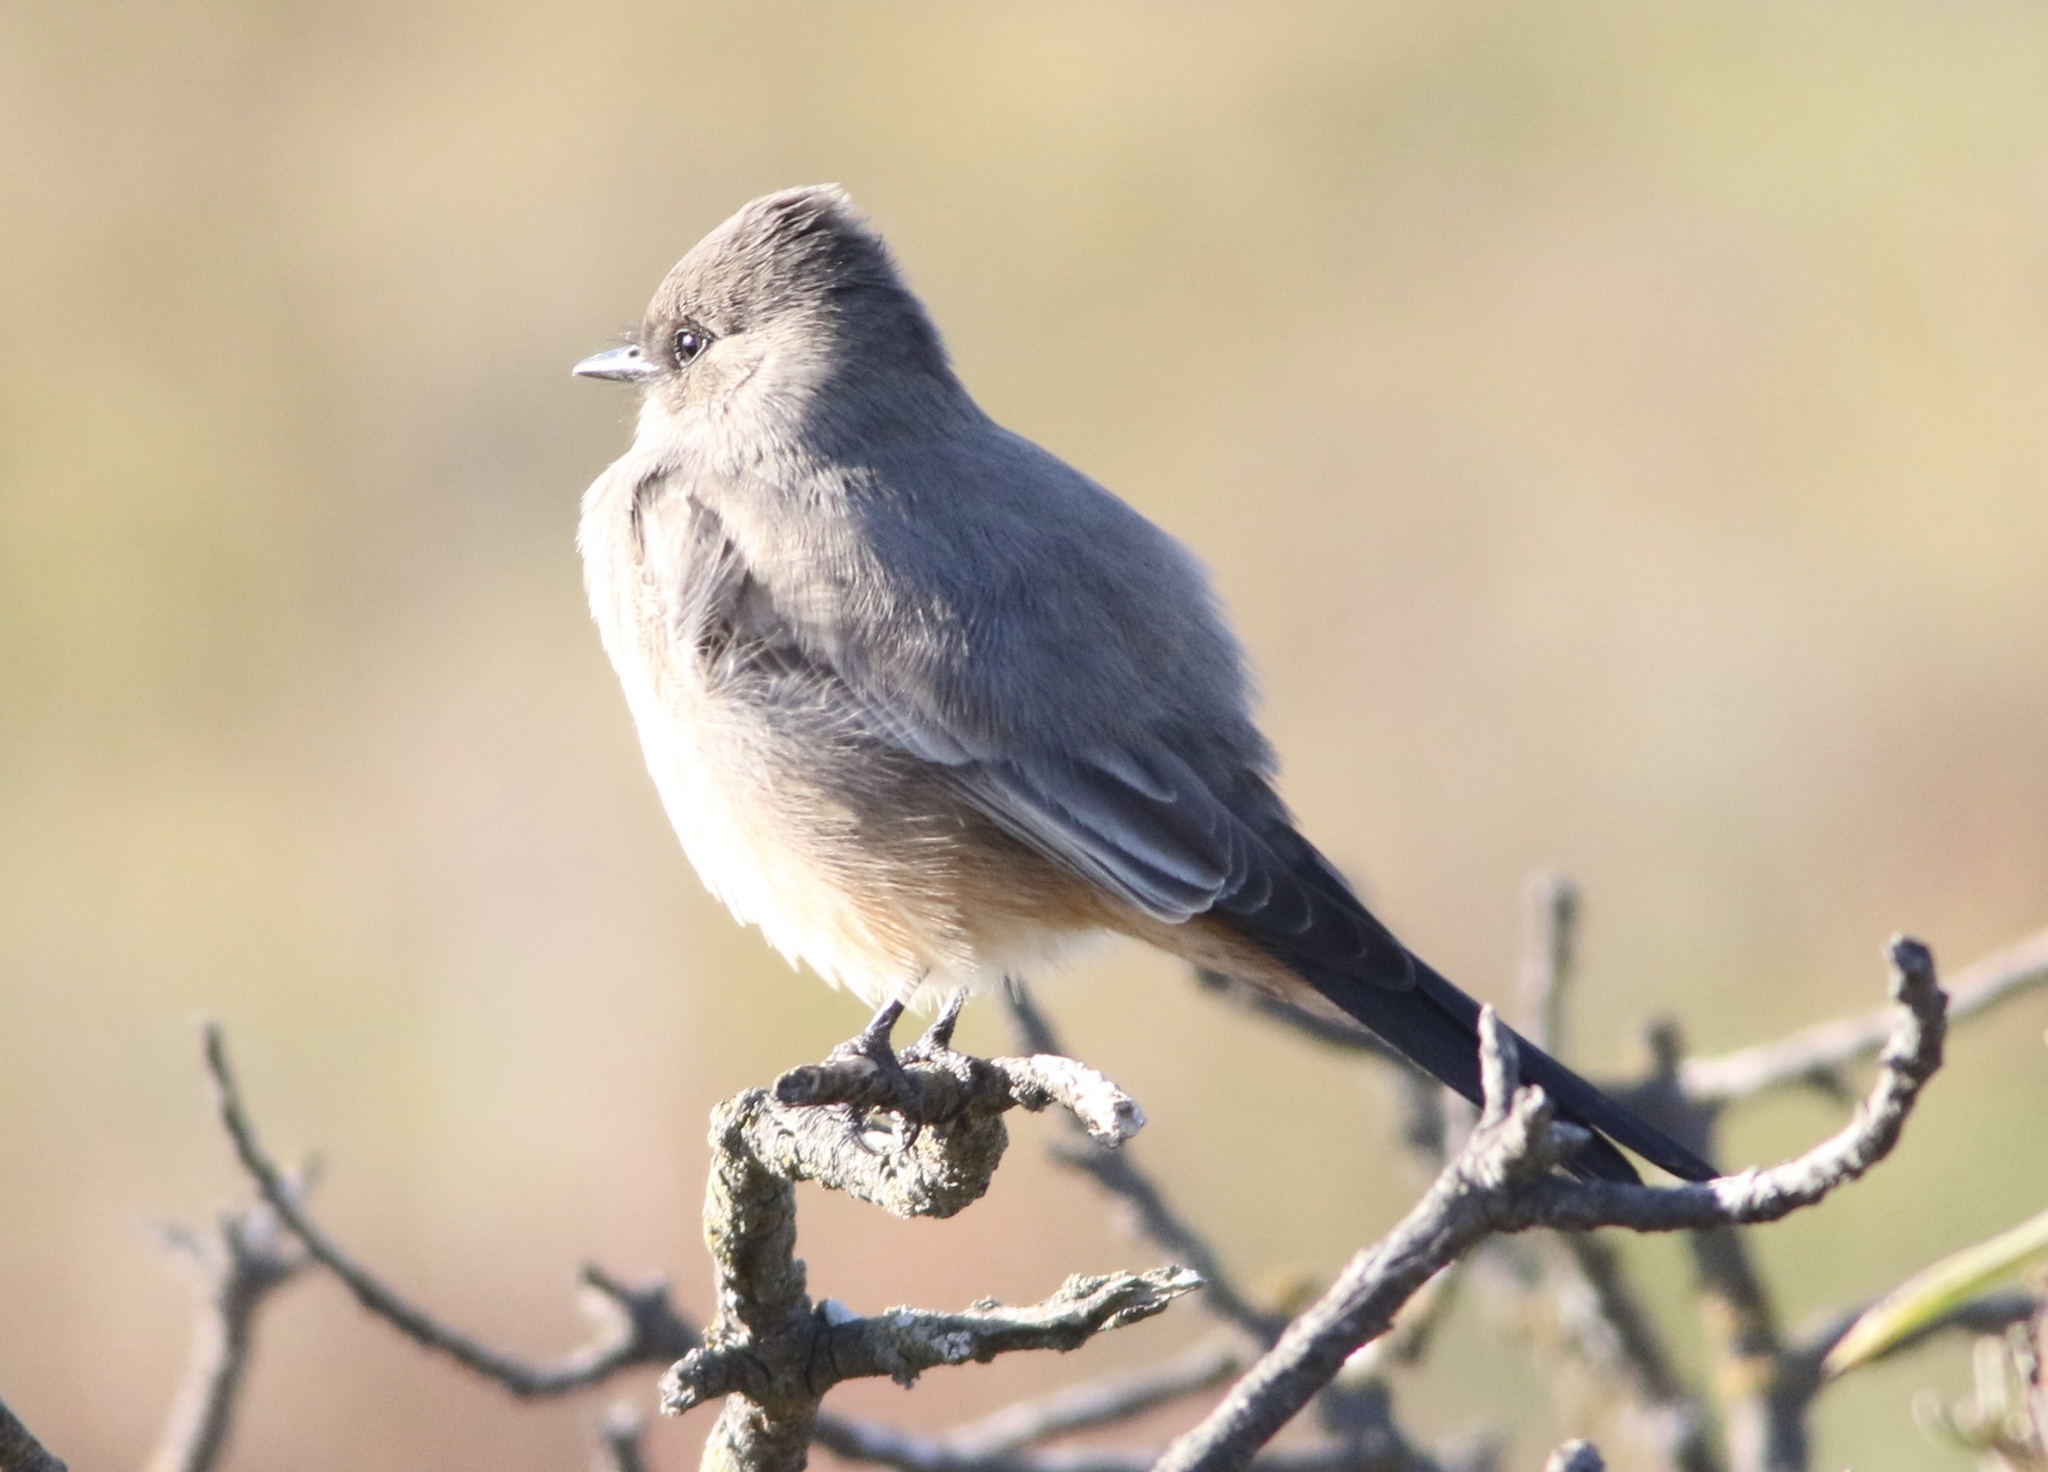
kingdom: Animalia
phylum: Chordata
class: Aves
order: Passeriformes
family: Tyrannidae
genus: Sayornis
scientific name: Sayornis saya
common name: Say's phoebe
